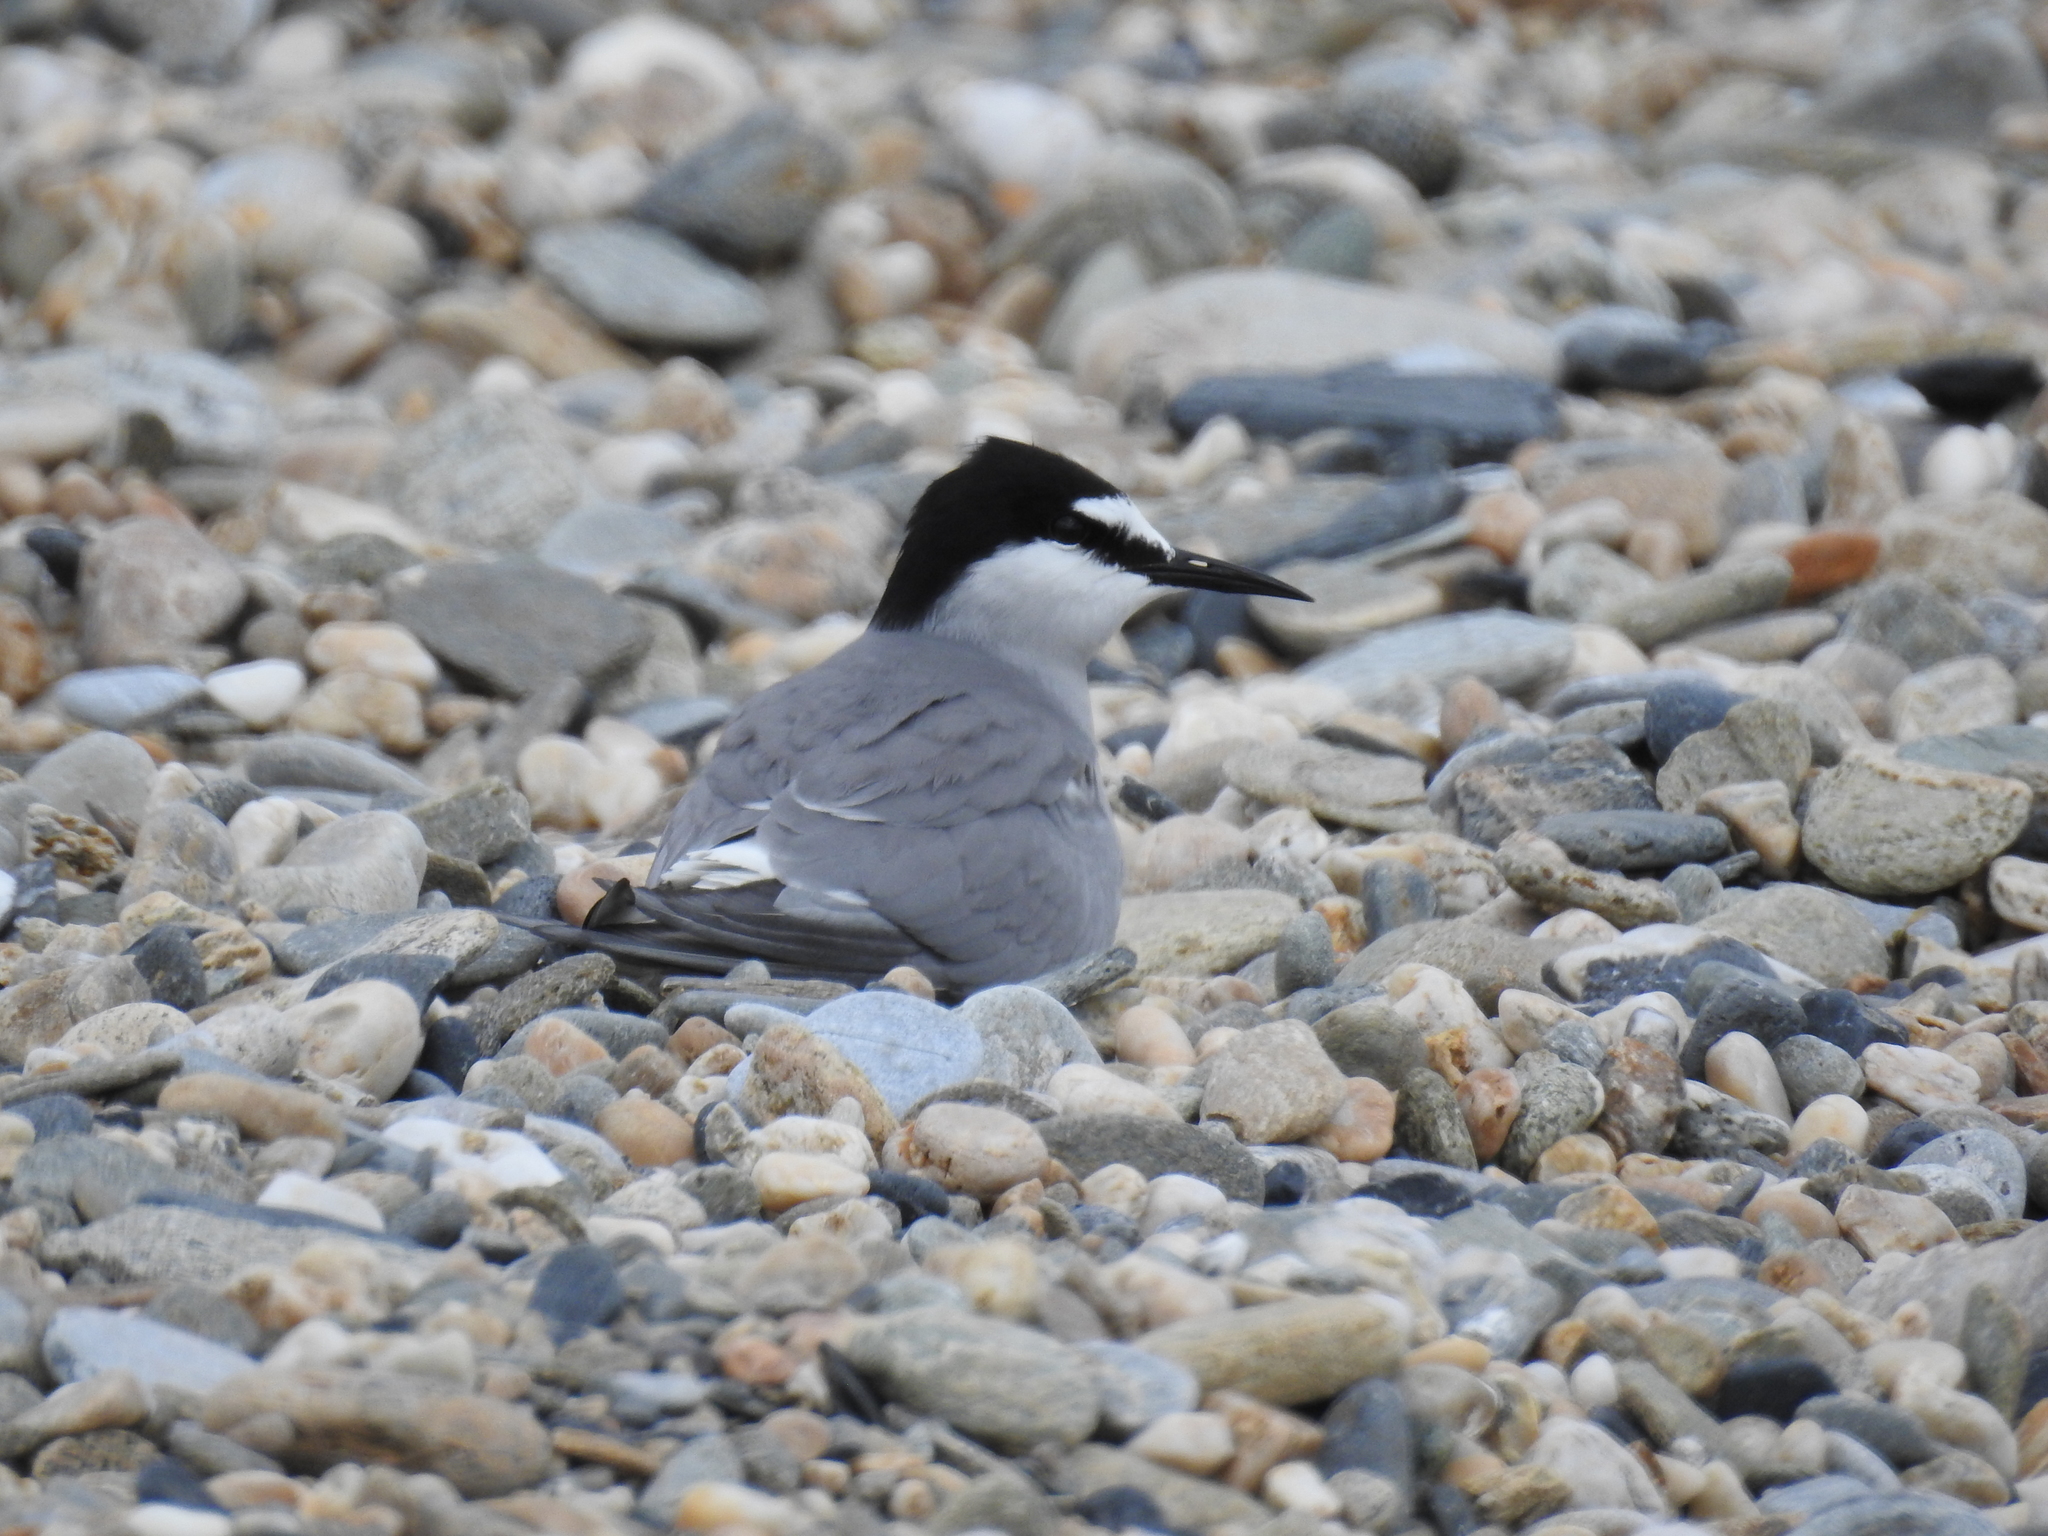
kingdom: Animalia
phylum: Chordata
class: Aves
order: Charadriiformes
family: Laridae
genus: Onychoprion
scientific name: Onychoprion aleuticus
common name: Aleutian tern
